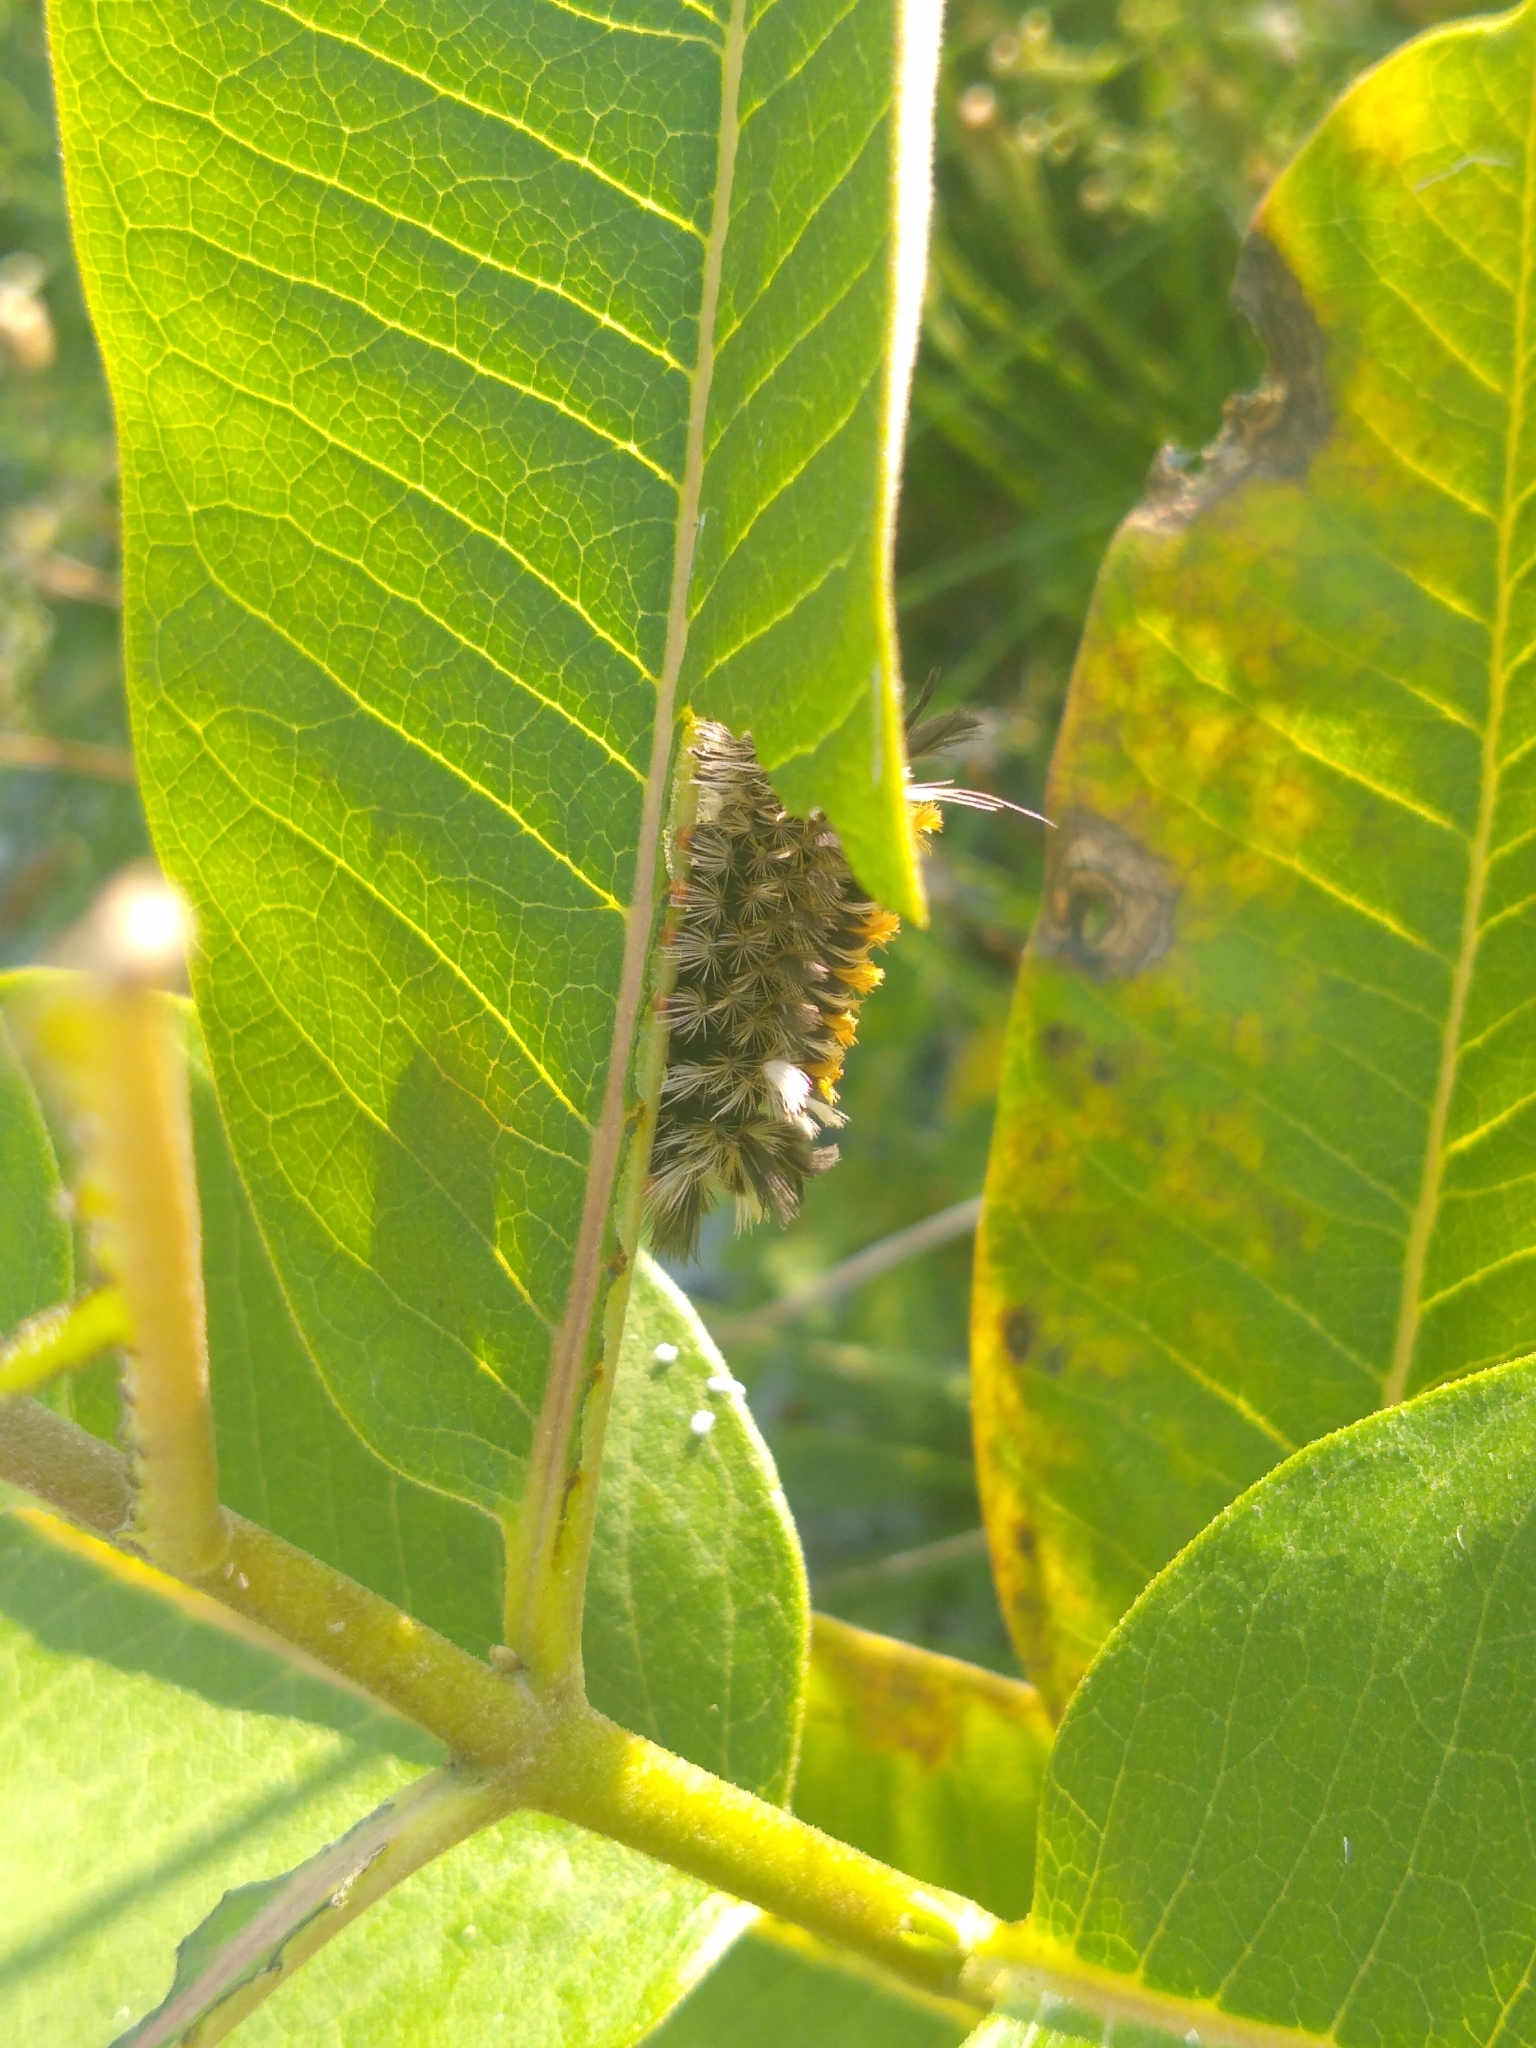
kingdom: Animalia
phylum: Arthropoda
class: Insecta
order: Lepidoptera
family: Erebidae
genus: Euchaetes
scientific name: Euchaetes egle
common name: Milkweed tussock moth
